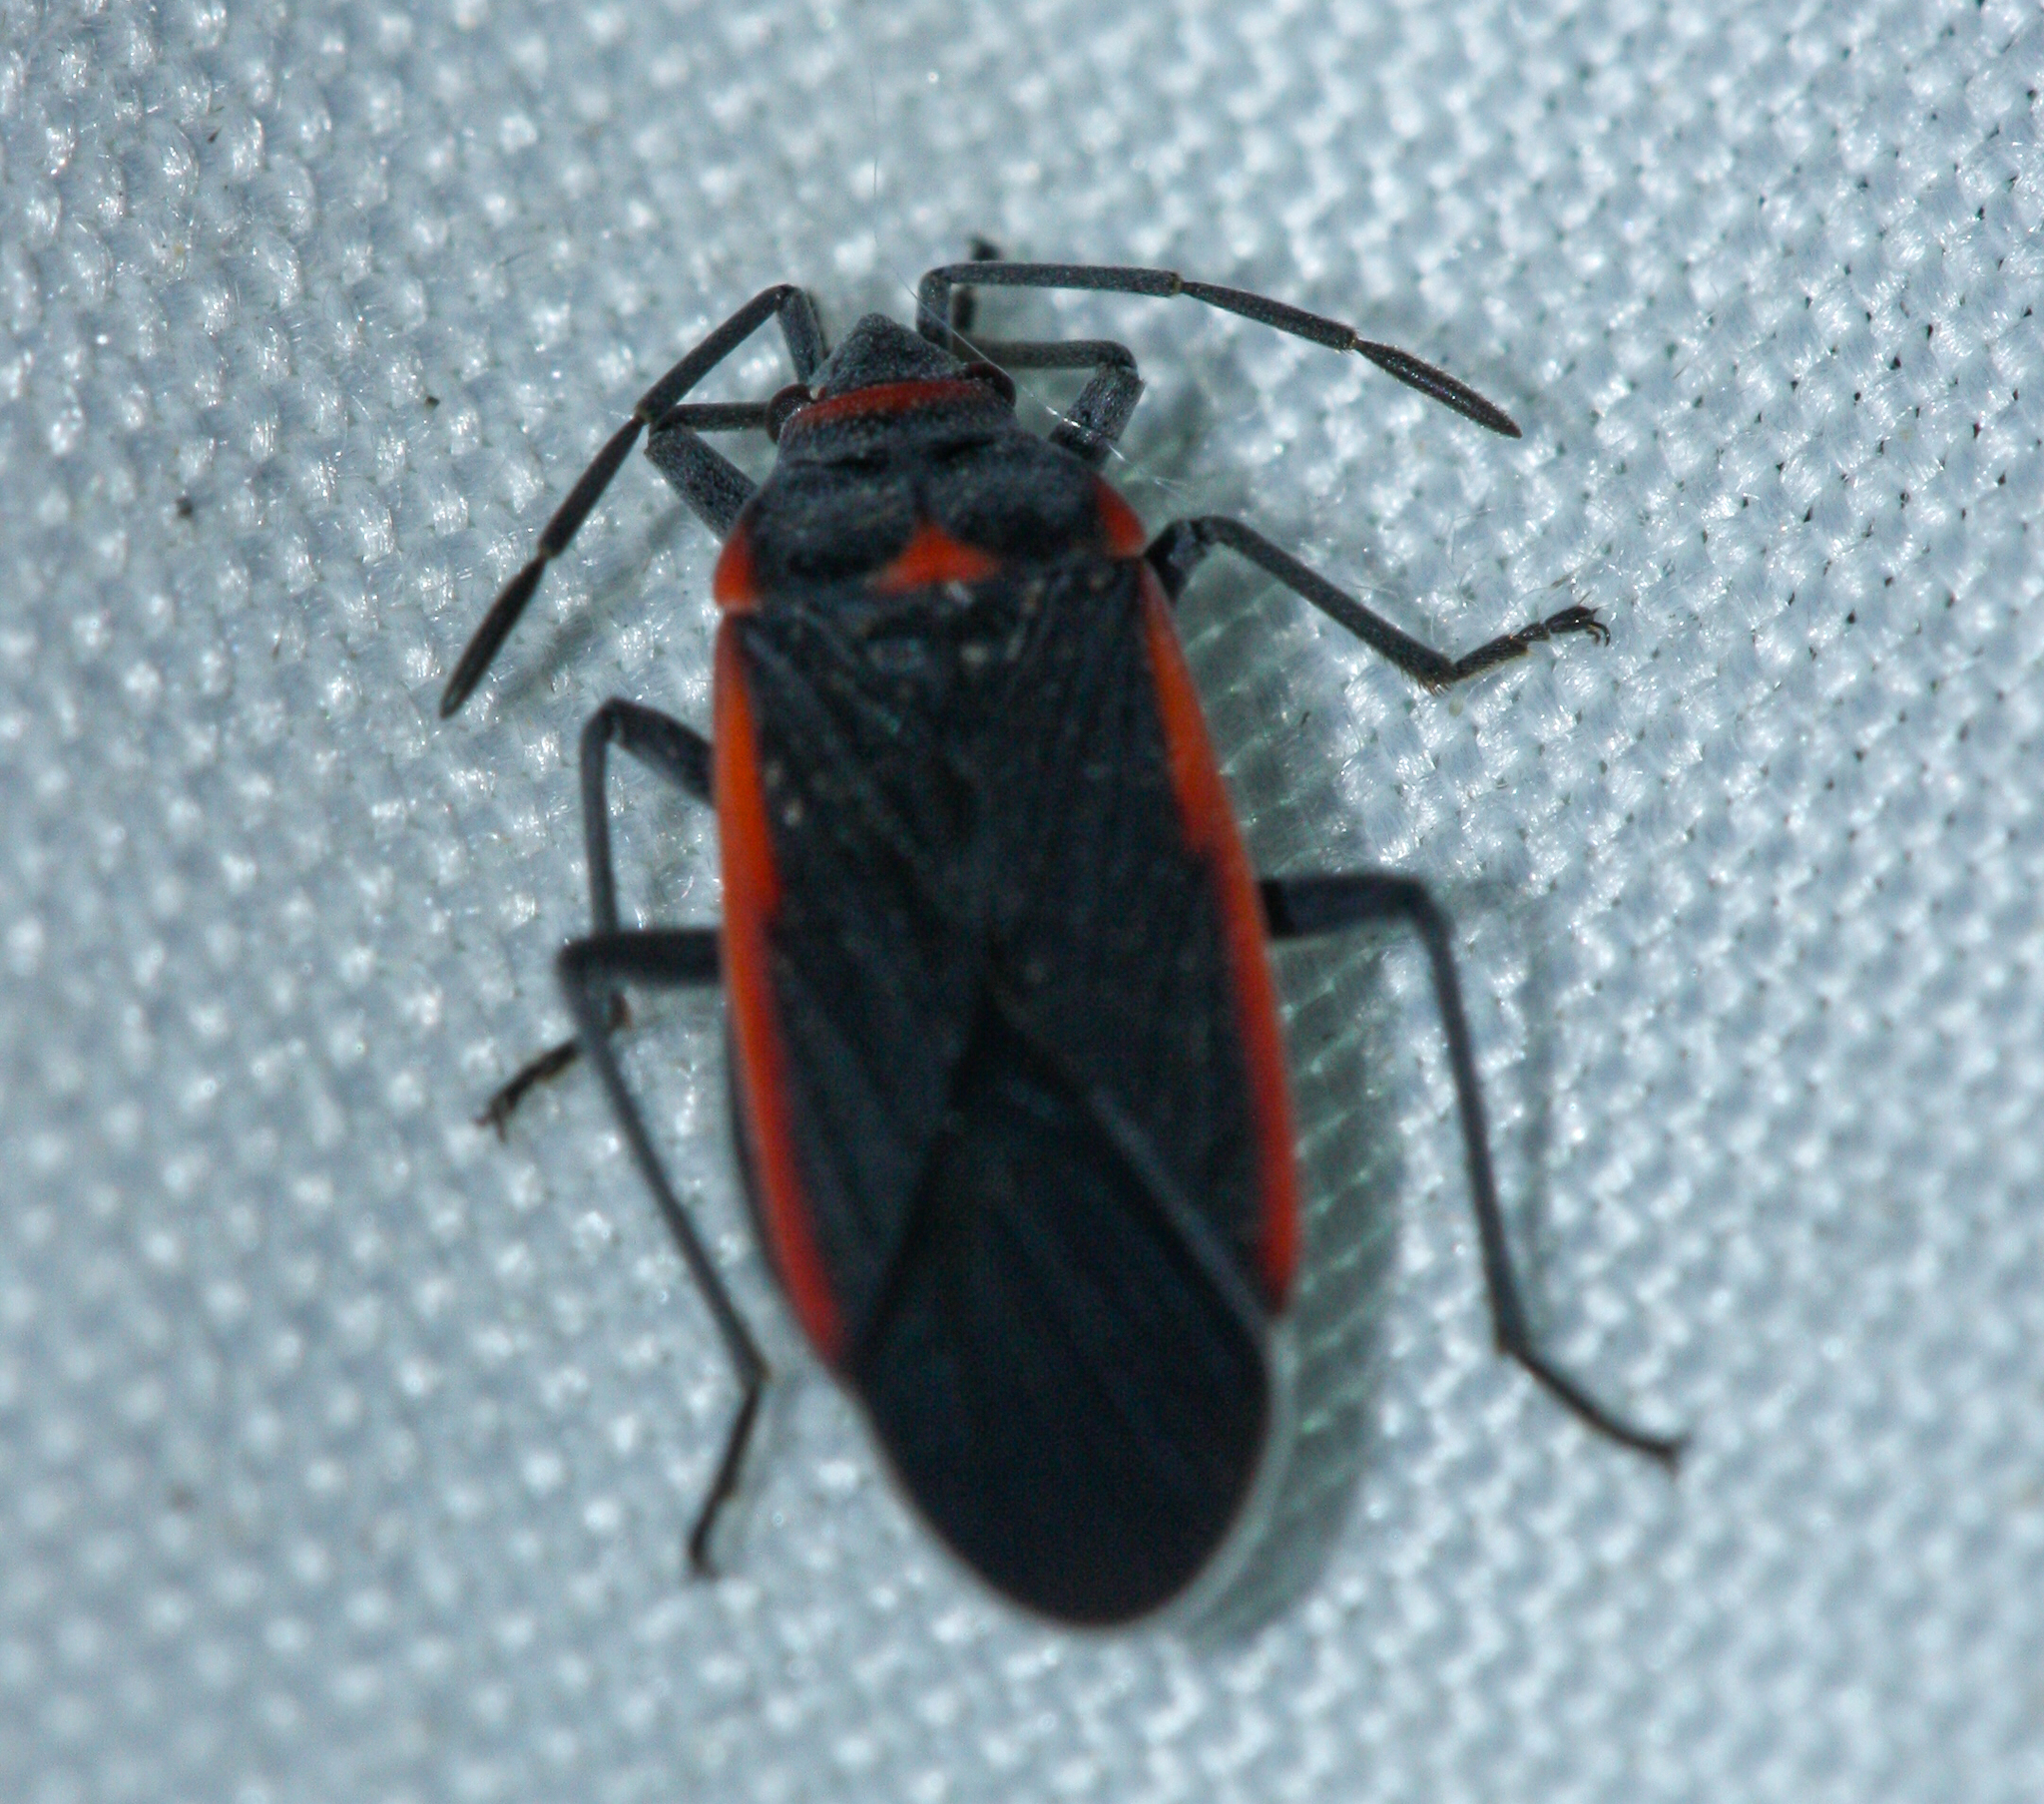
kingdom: Animalia
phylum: Arthropoda
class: Insecta
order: Hemiptera
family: Lygaeidae
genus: Melacoryphus
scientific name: Melacoryphus lateralis
